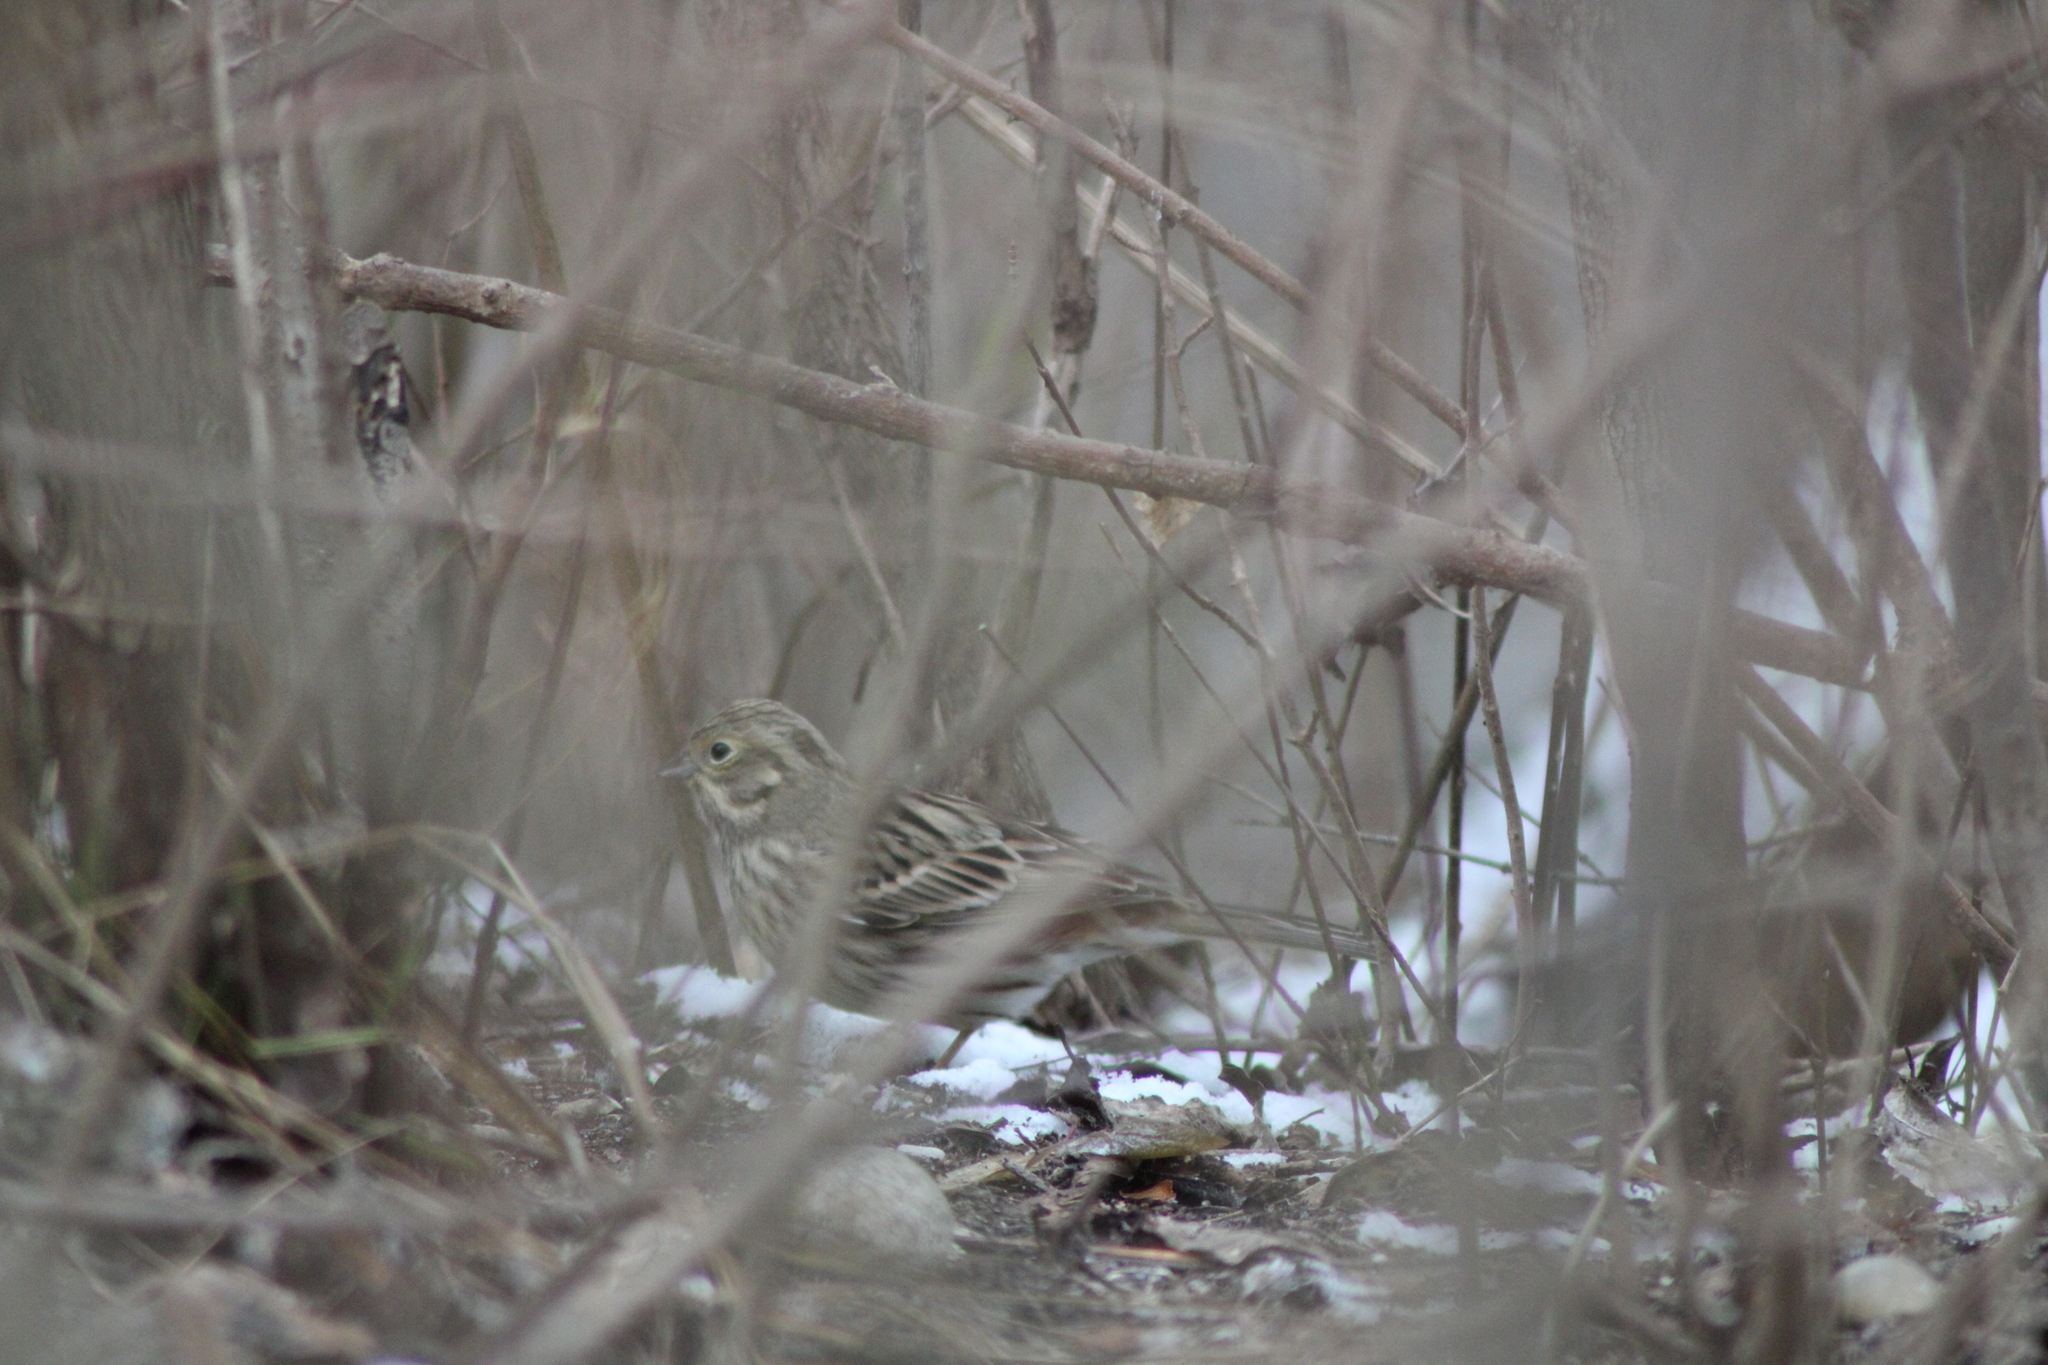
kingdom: Animalia
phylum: Chordata
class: Aves
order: Passeriformes
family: Emberizidae
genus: Emberiza
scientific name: Emberiza citrinella
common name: Yellowhammer
